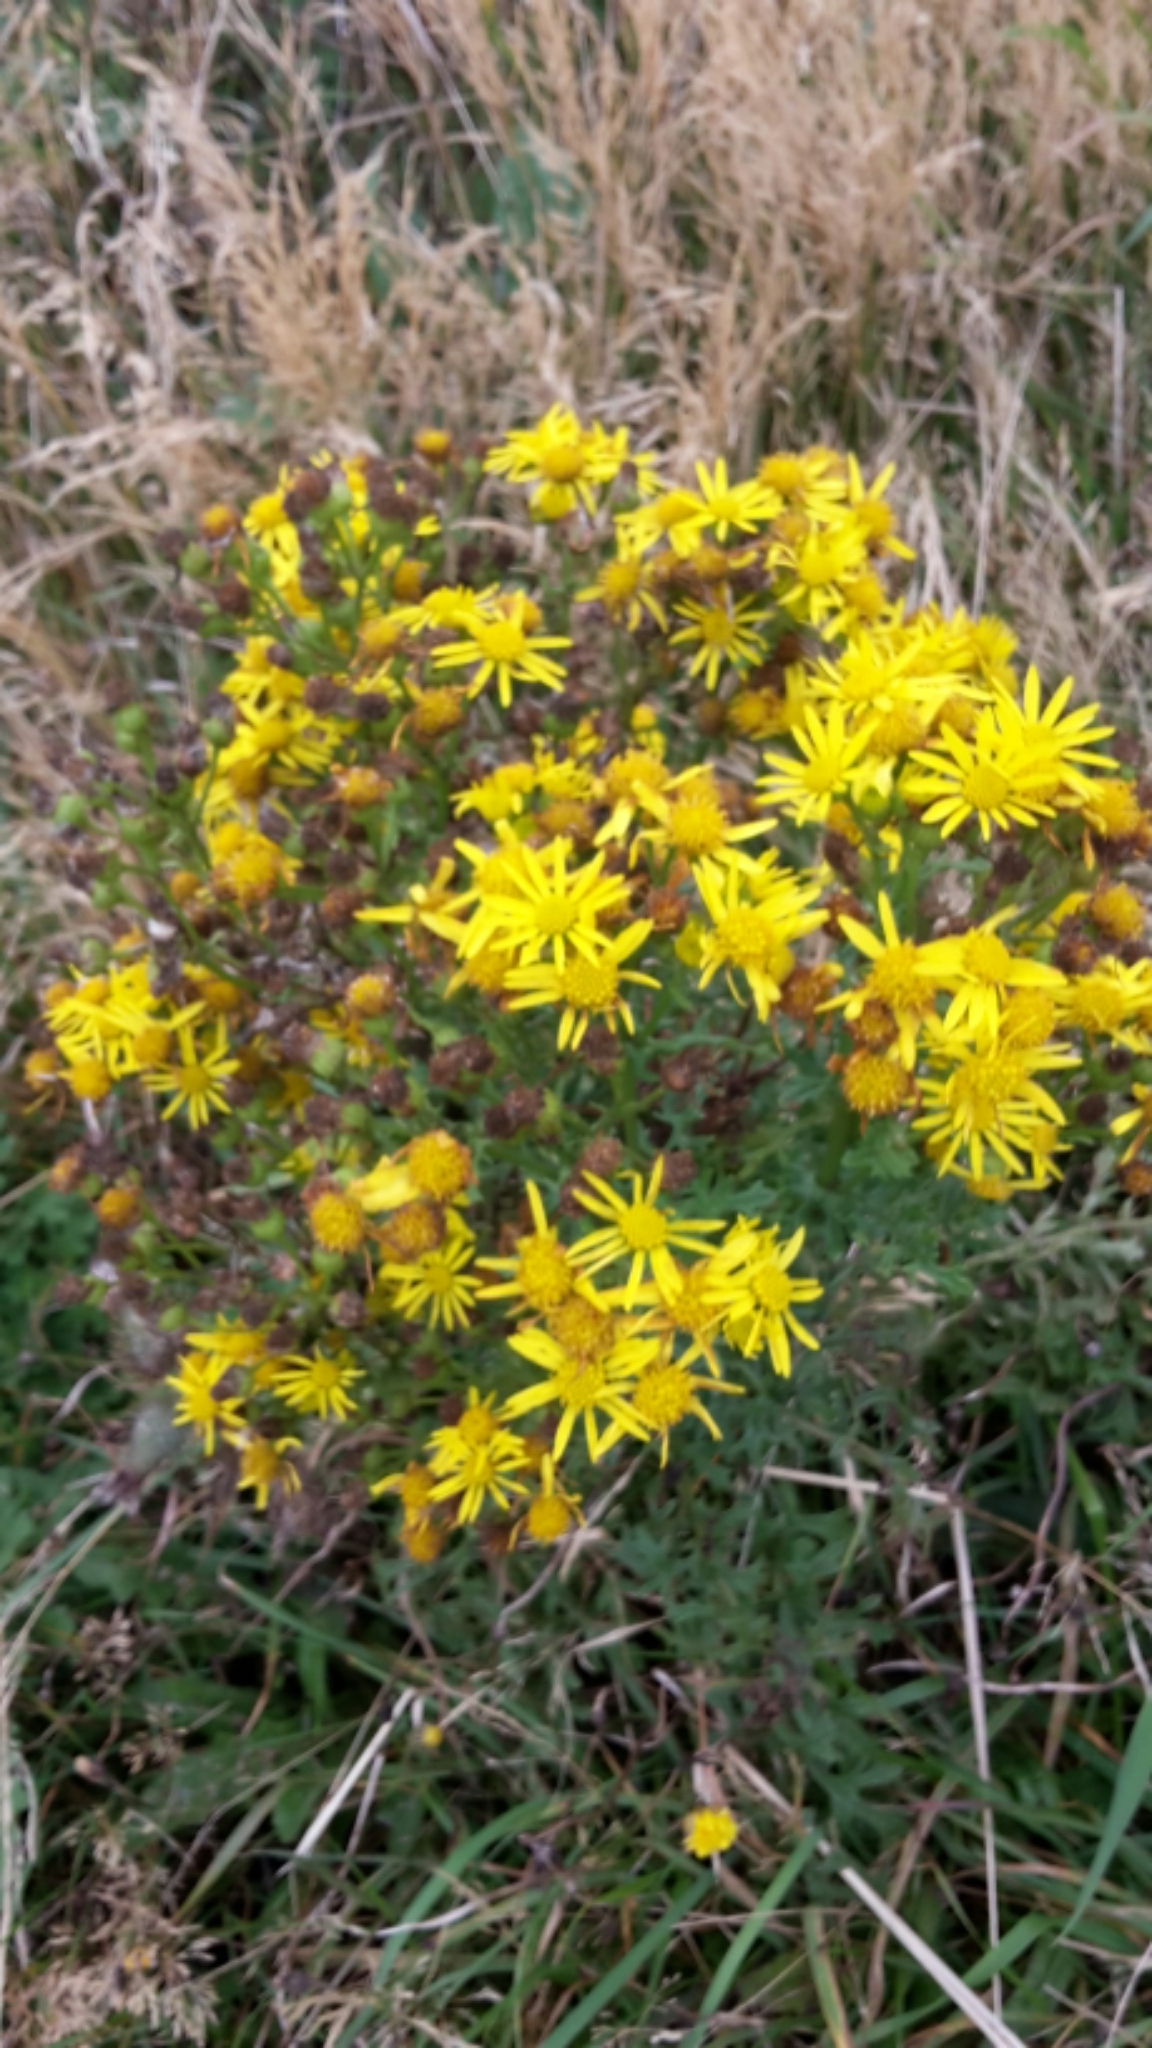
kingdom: Plantae
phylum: Tracheophyta
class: Magnoliopsida
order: Asterales
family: Asteraceae
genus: Jacobaea
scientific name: Jacobaea vulgaris
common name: Stinking willie
